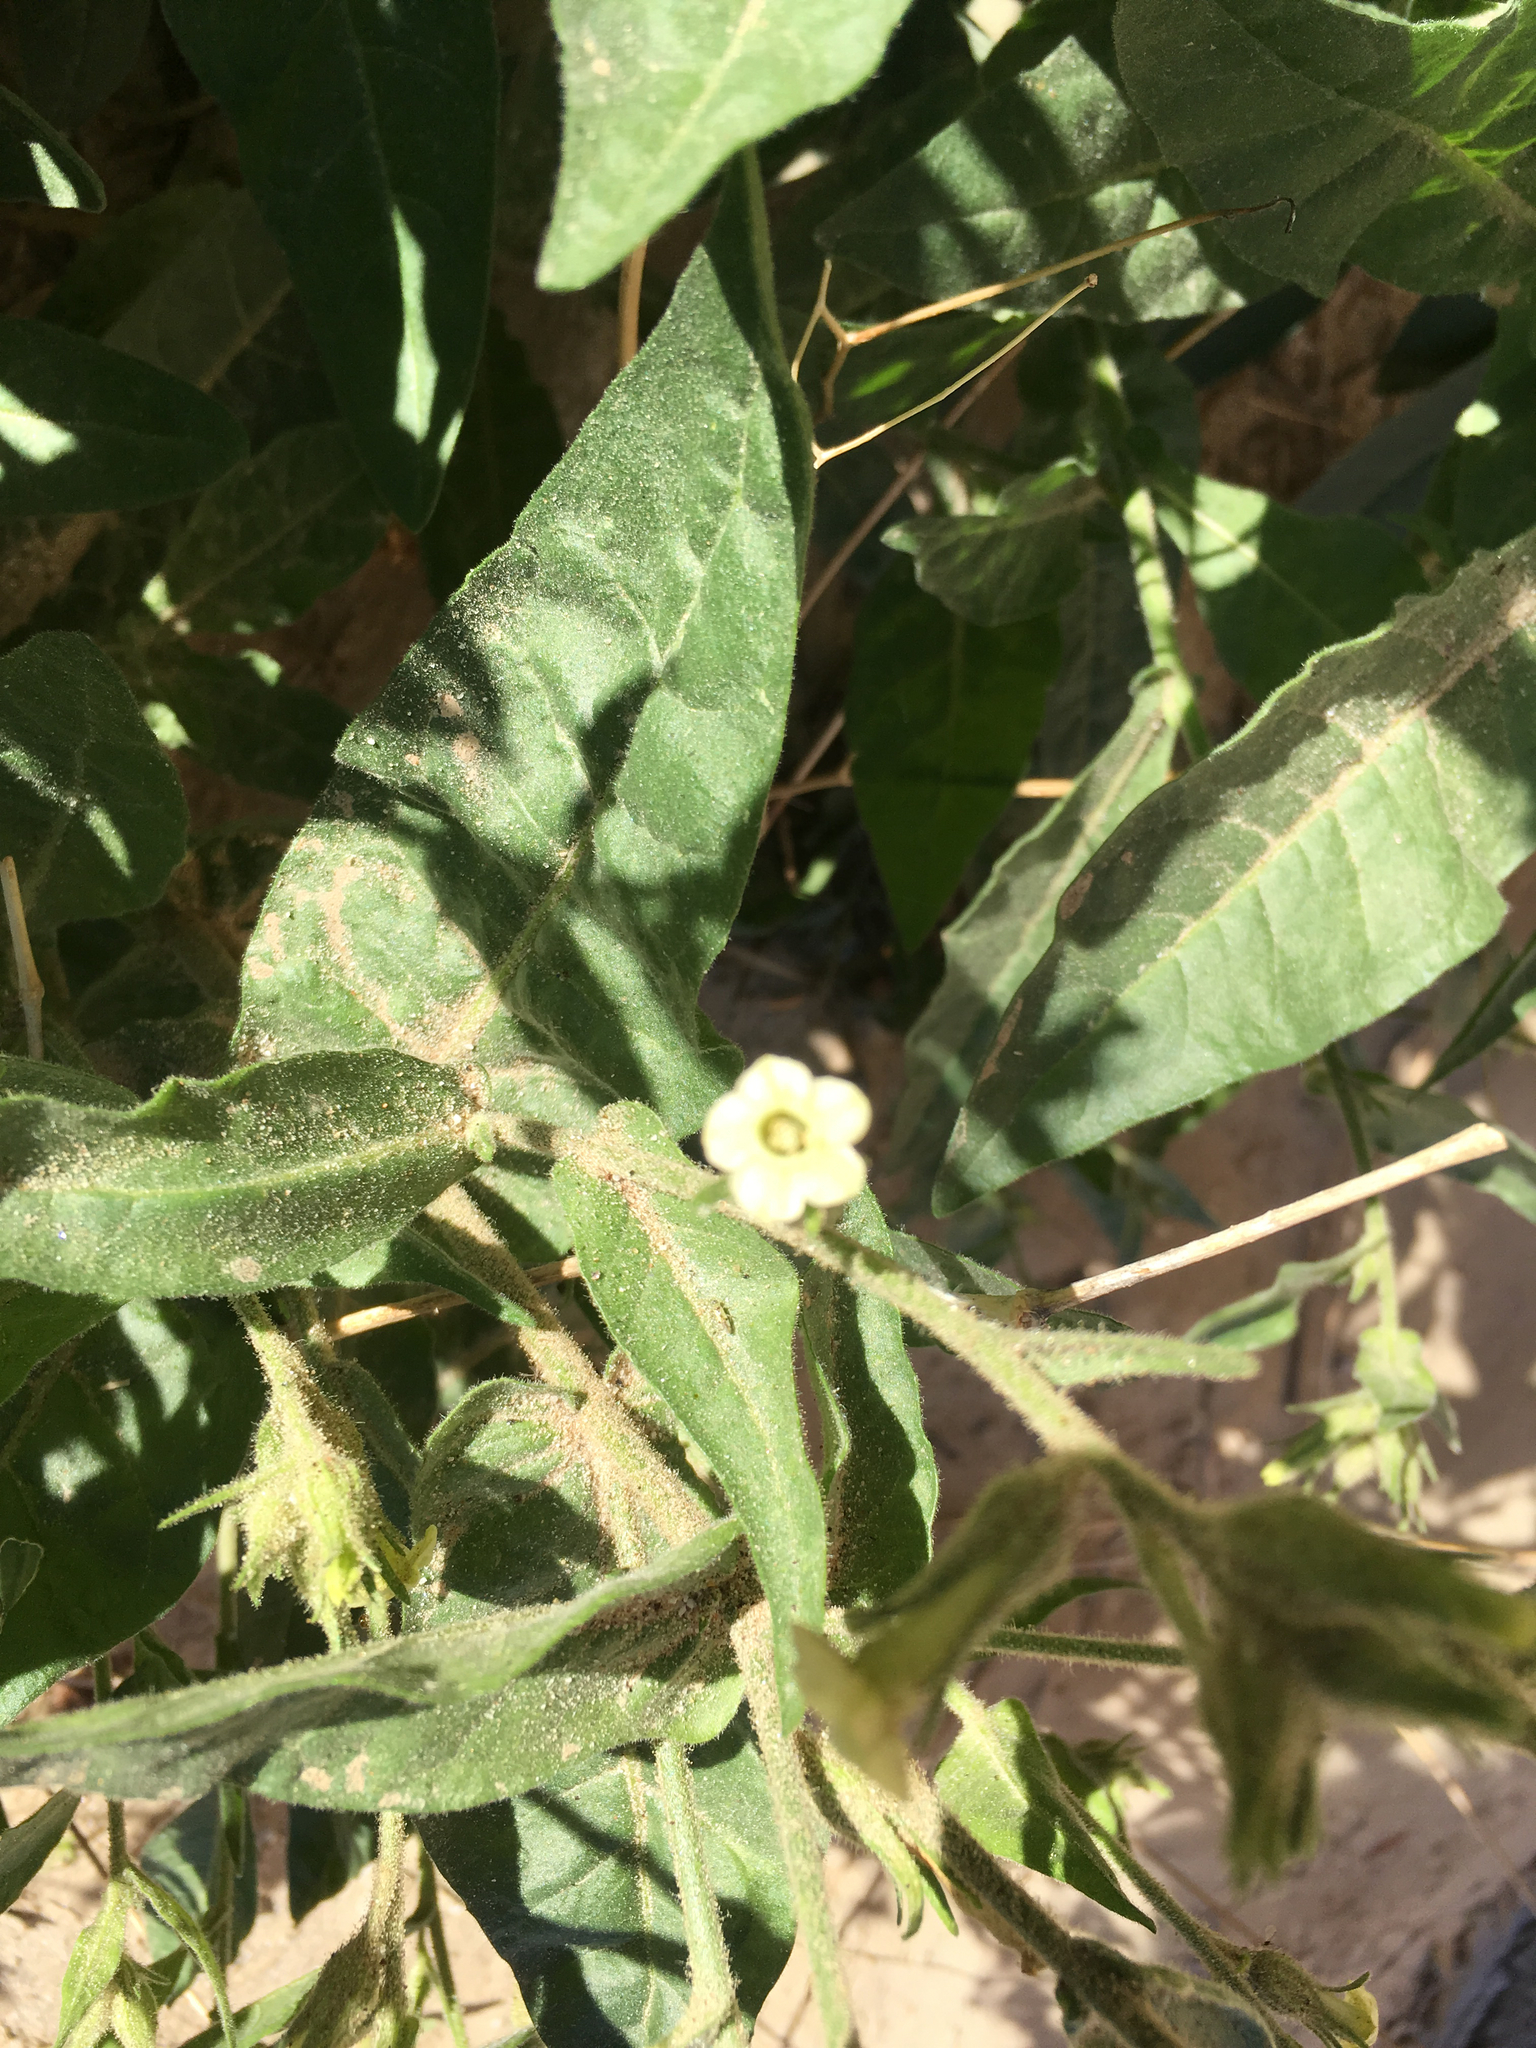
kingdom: Plantae
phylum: Tracheophyta
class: Magnoliopsida
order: Solanales
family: Solanaceae
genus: Nicotiana
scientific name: Nicotiana obtusifolia
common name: Desert tobacco
